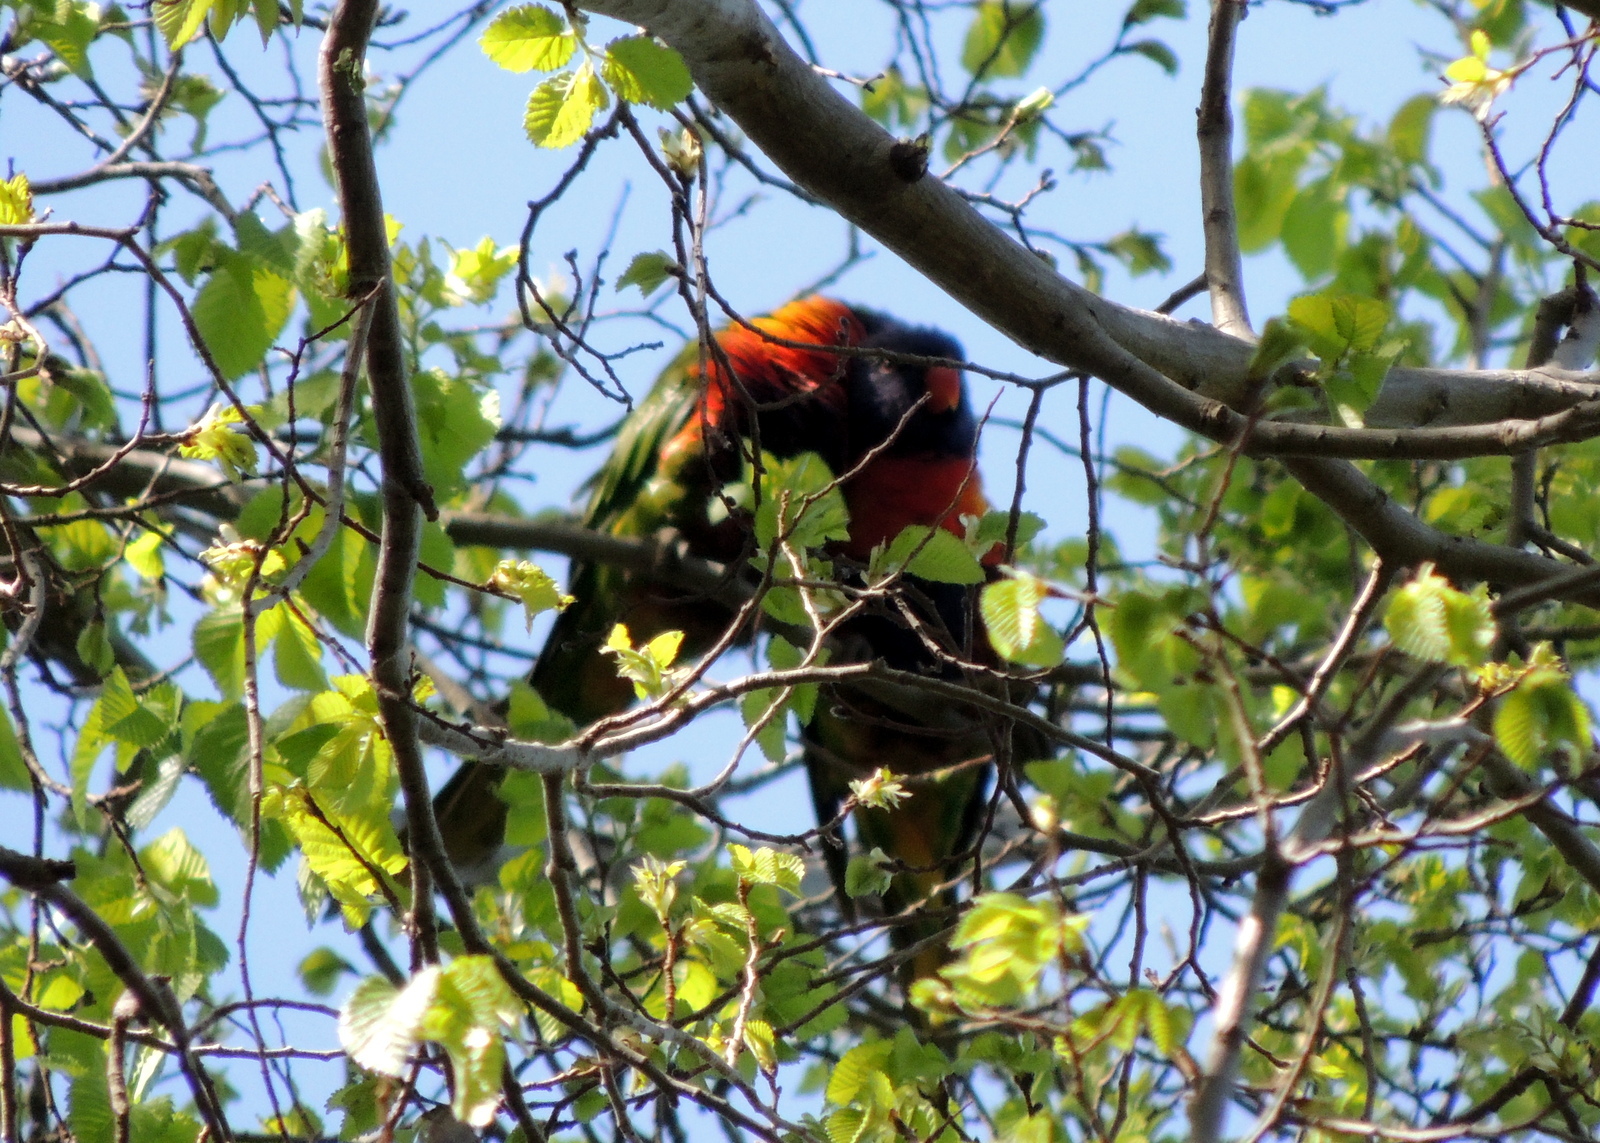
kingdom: Animalia
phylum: Chordata
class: Aves
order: Psittaciformes
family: Psittacidae
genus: Trichoglossus
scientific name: Trichoglossus haematodus
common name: Coconut lorikeet
